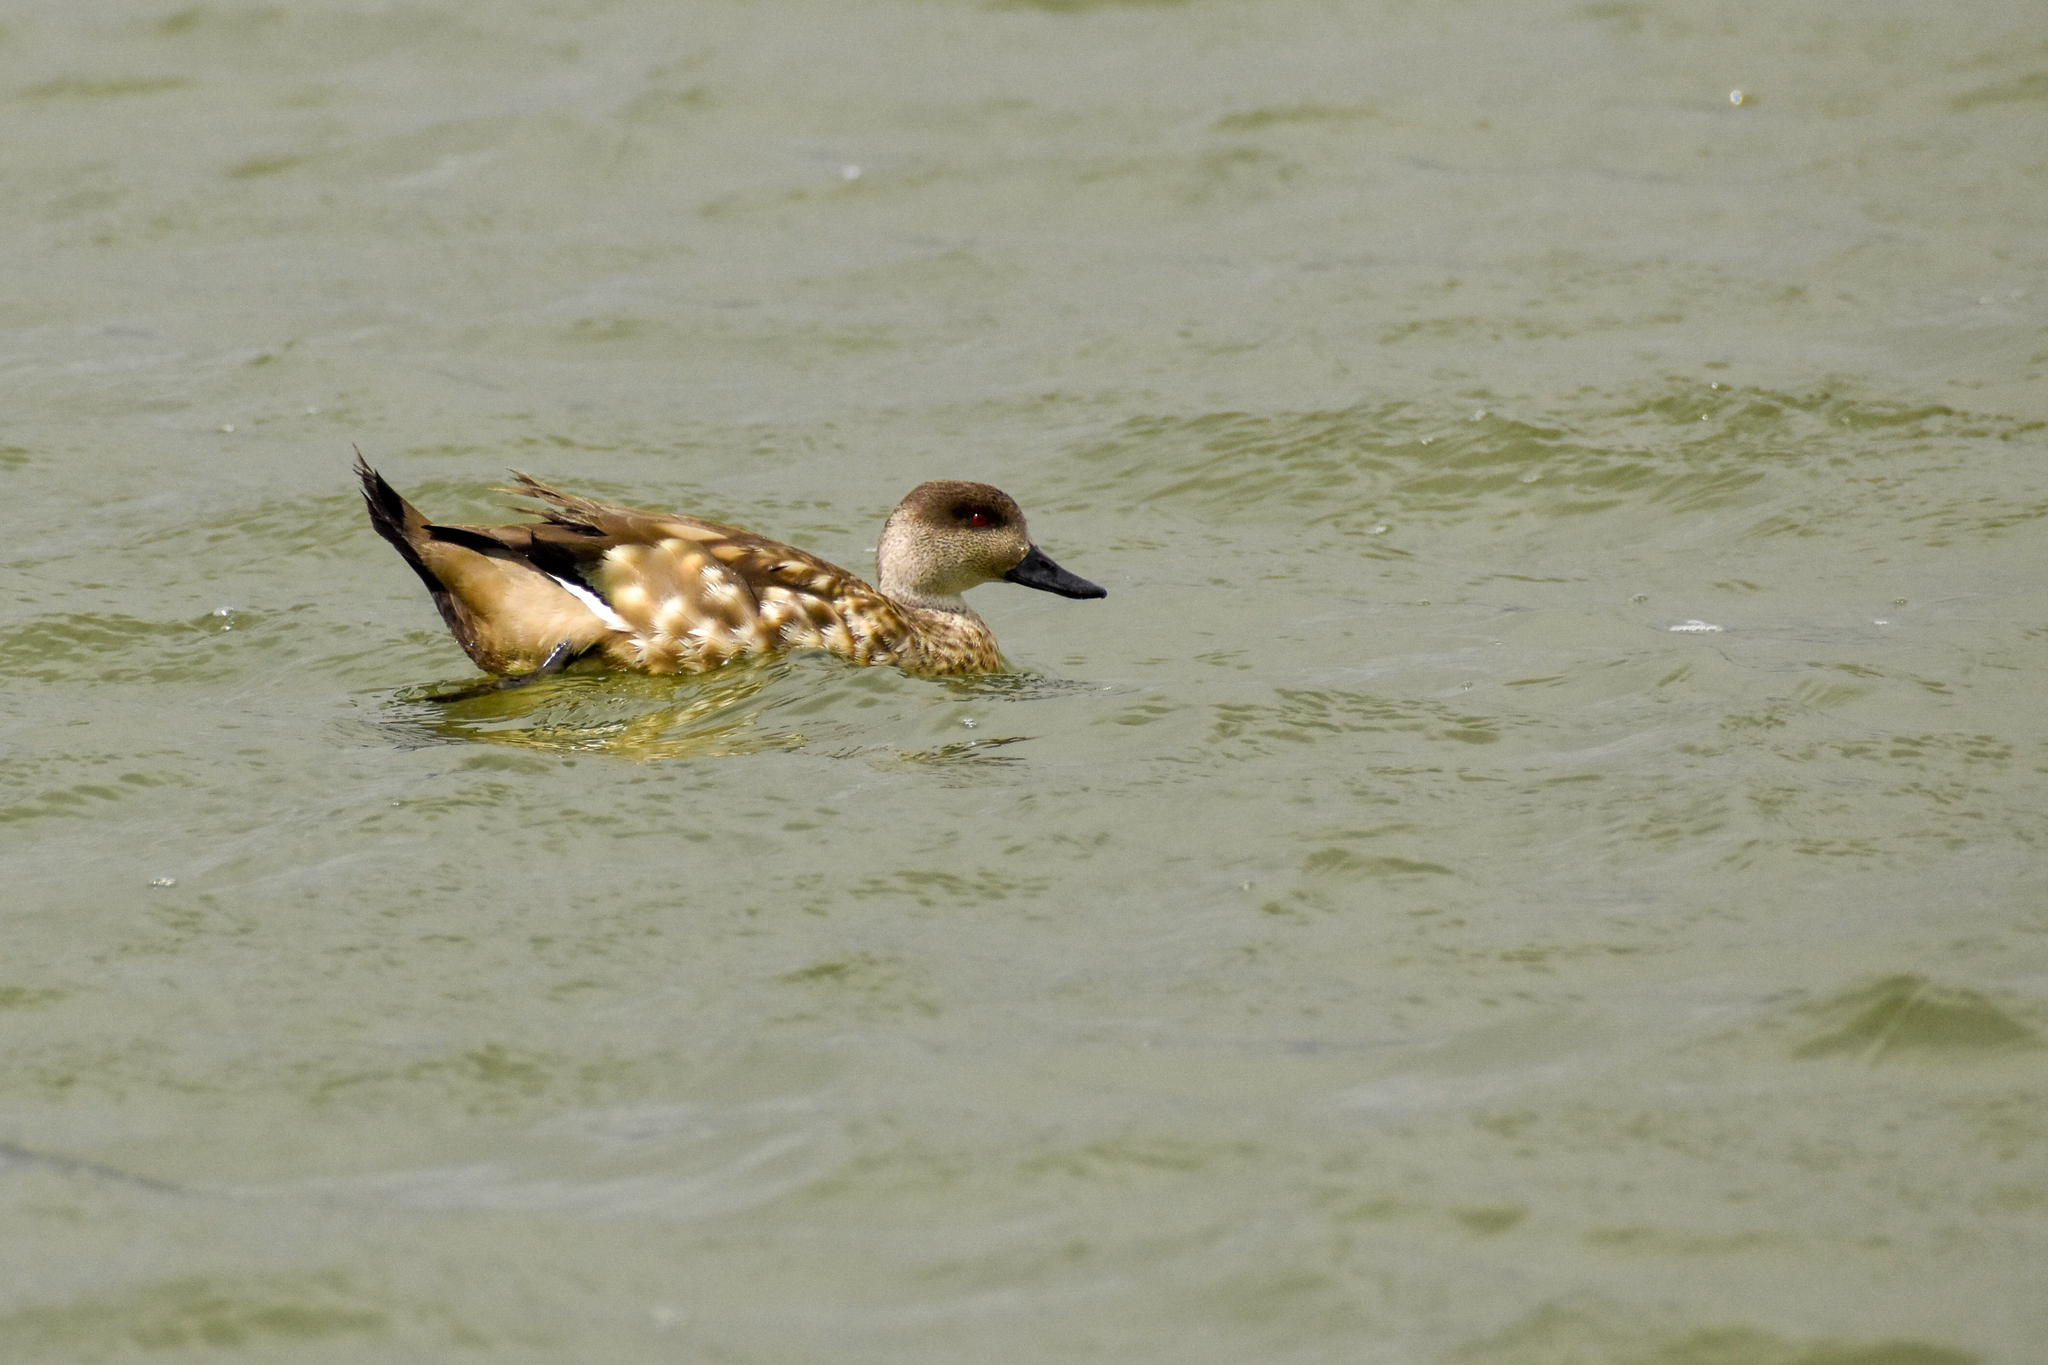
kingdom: Animalia
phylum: Chordata
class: Aves
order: Anseriformes
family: Anatidae
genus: Lophonetta
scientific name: Lophonetta specularioides
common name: Crested duck
